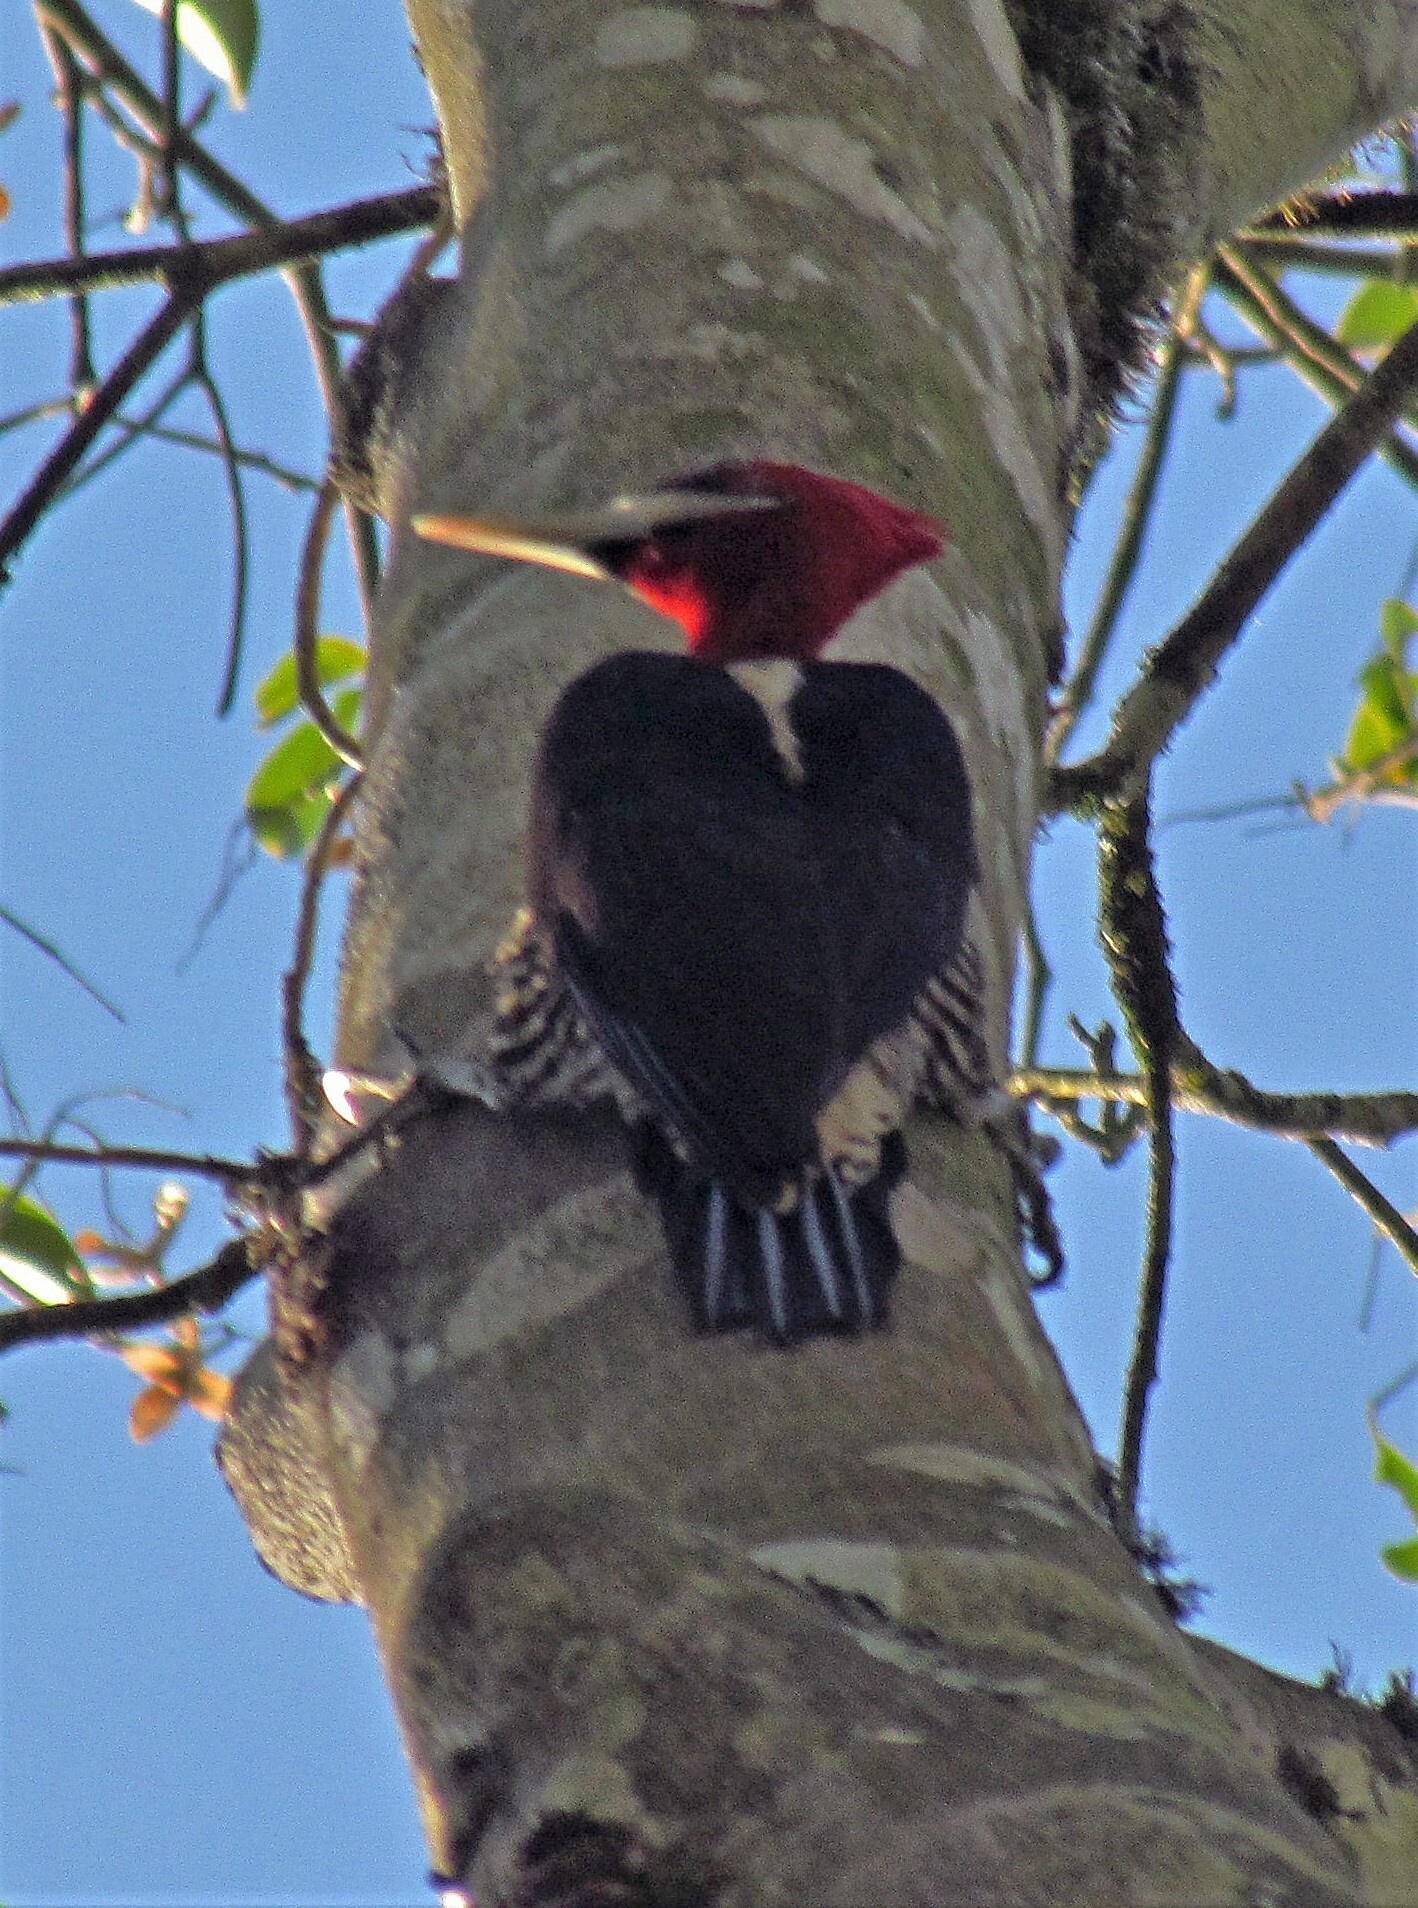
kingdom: Animalia
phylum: Chordata
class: Aves
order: Piciformes
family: Picidae
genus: Campephilus
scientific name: Campephilus robustus
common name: Robust woodpecker
